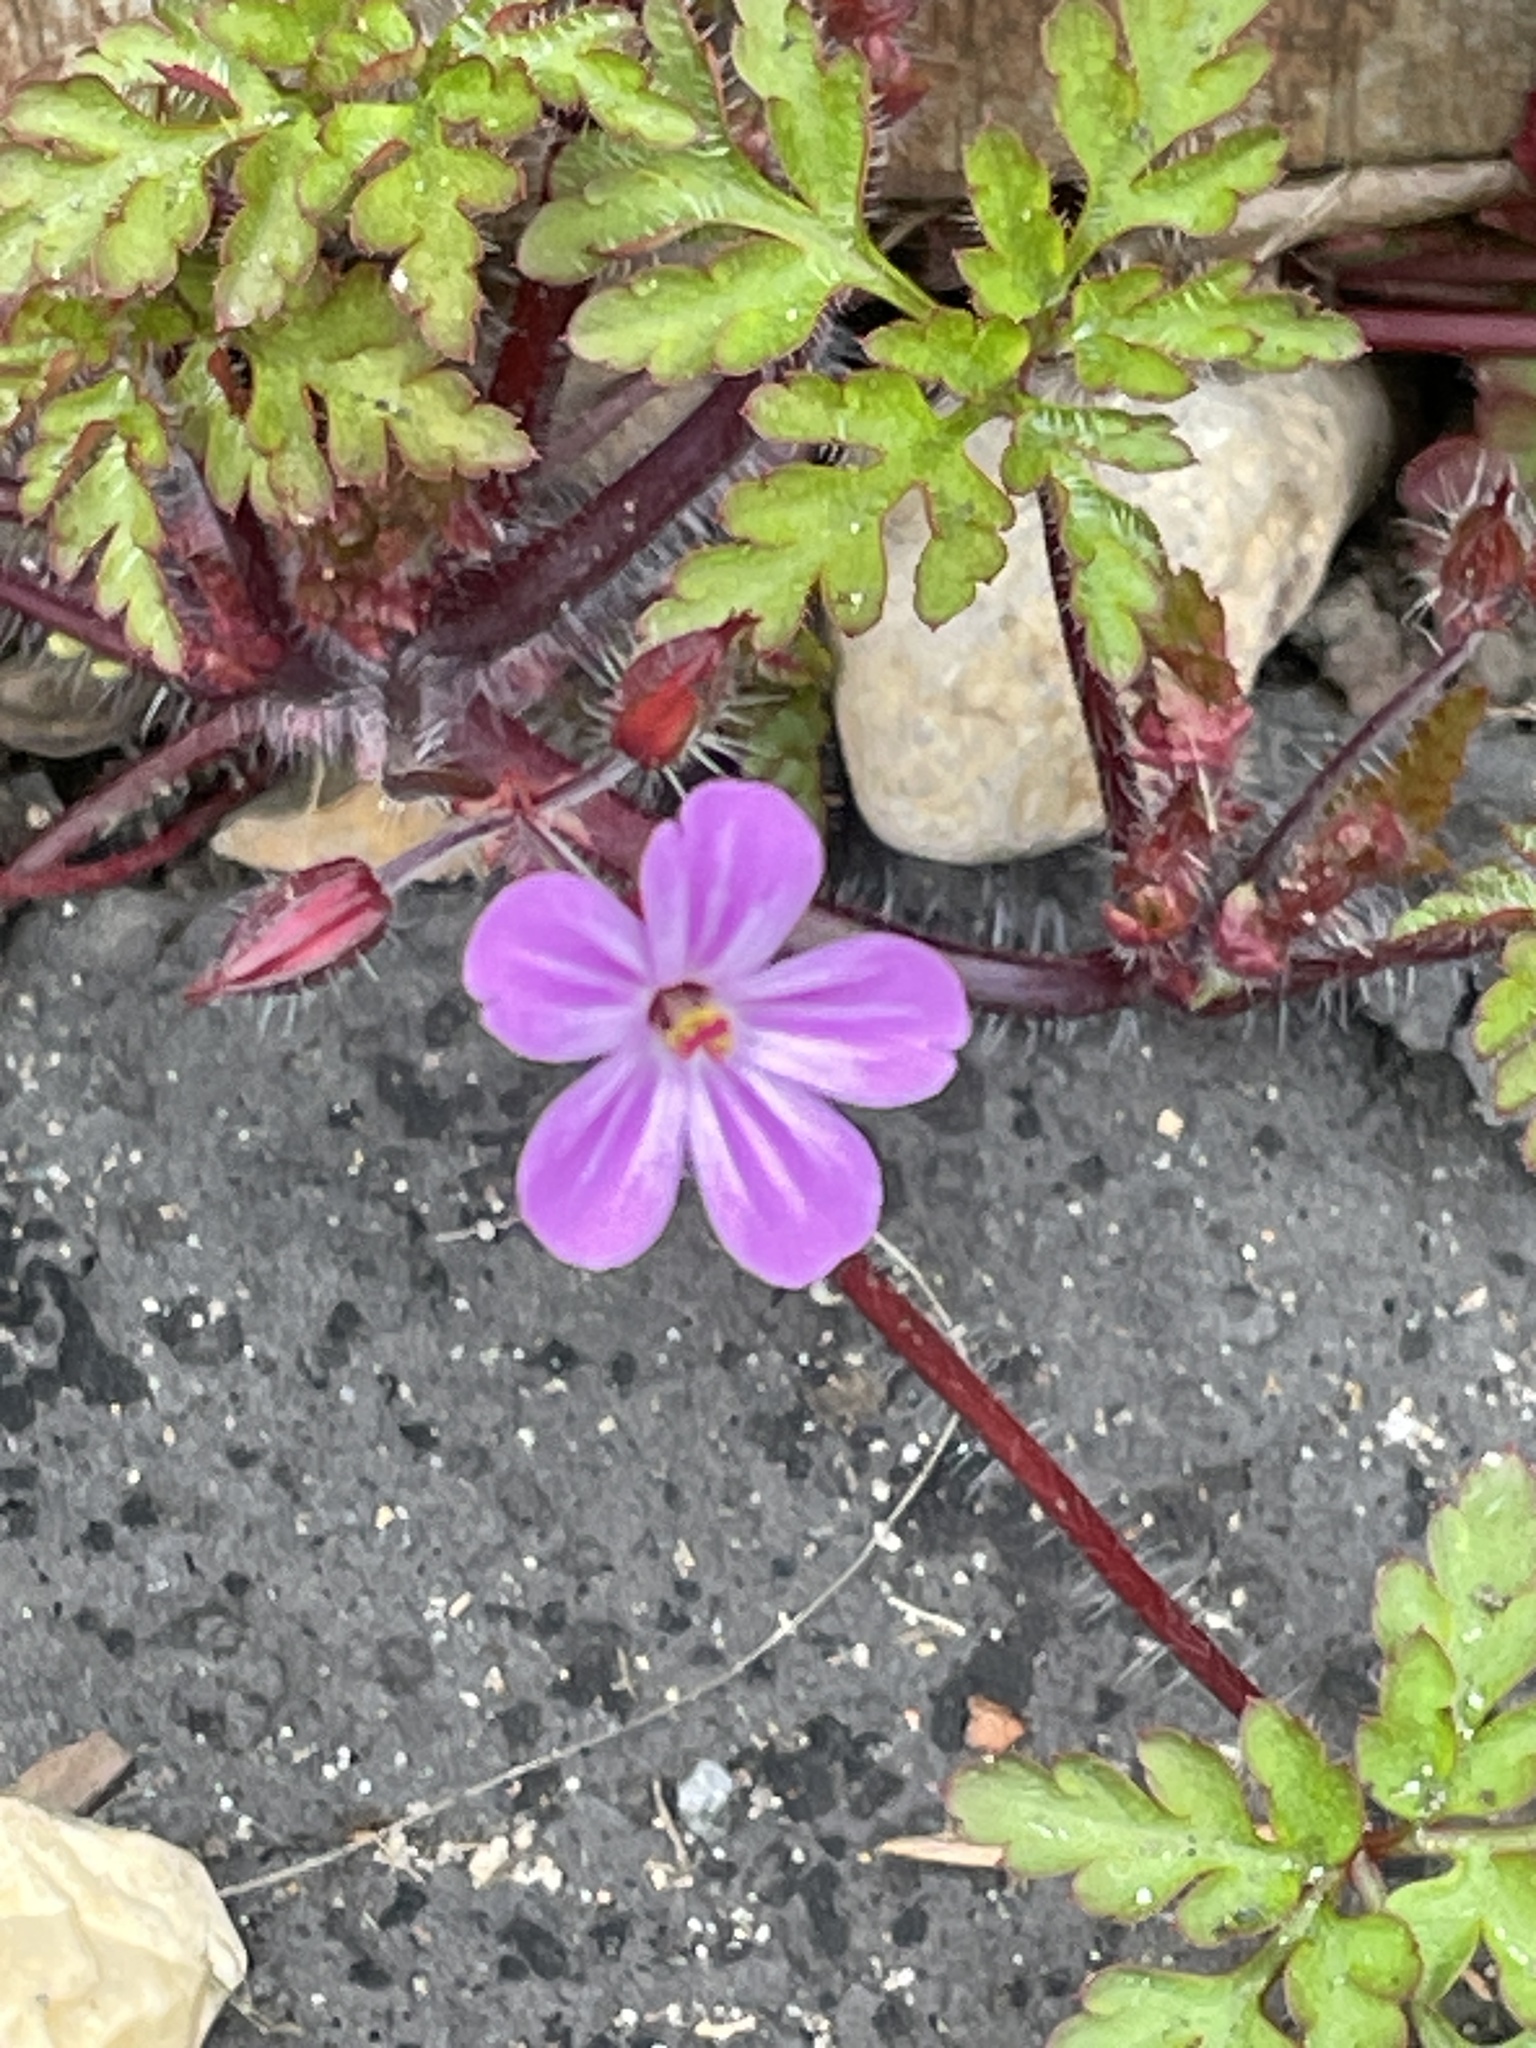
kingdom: Plantae
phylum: Tracheophyta
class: Magnoliopsida
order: Geraniales
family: Geraniaceae
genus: Geranium
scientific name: Geranium robertianum
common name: Herb-robert
